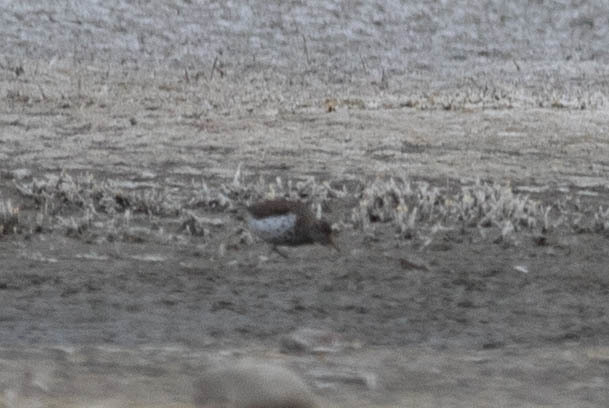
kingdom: Animalia
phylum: Chordata
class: Aves
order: Charadriiformes
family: Scolopacidae
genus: Actitis
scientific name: Actitis macularius
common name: Spotted sandpiper
